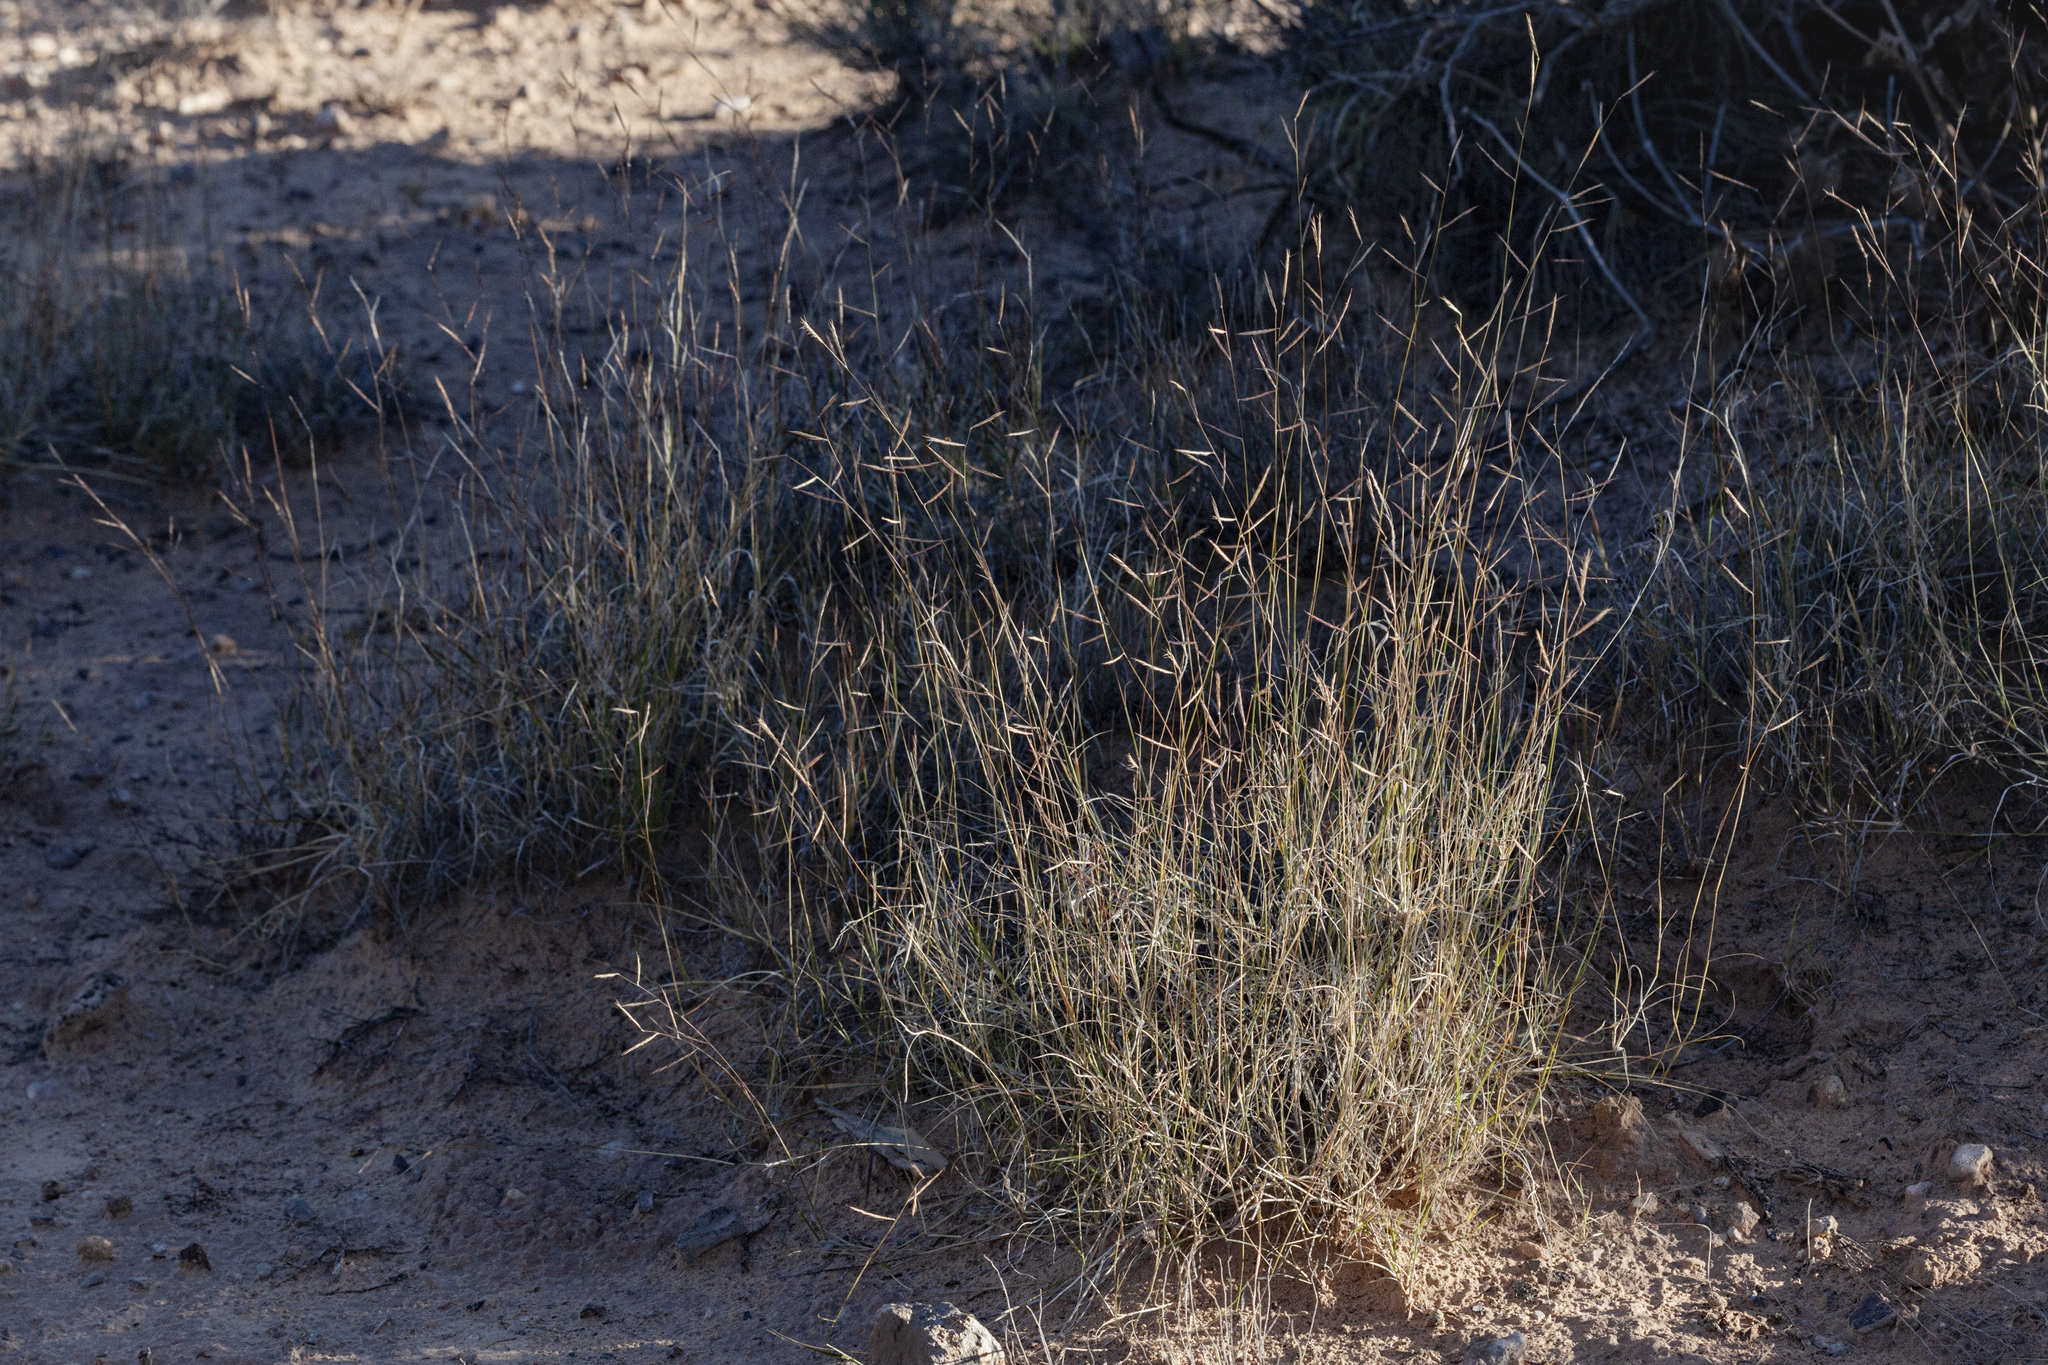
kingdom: Plantae
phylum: Tracheophyta
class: Liliopsida
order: Poales
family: Poaceae
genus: Bouteloua
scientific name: Bouteloua eriopoda
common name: Woolly foot grama
